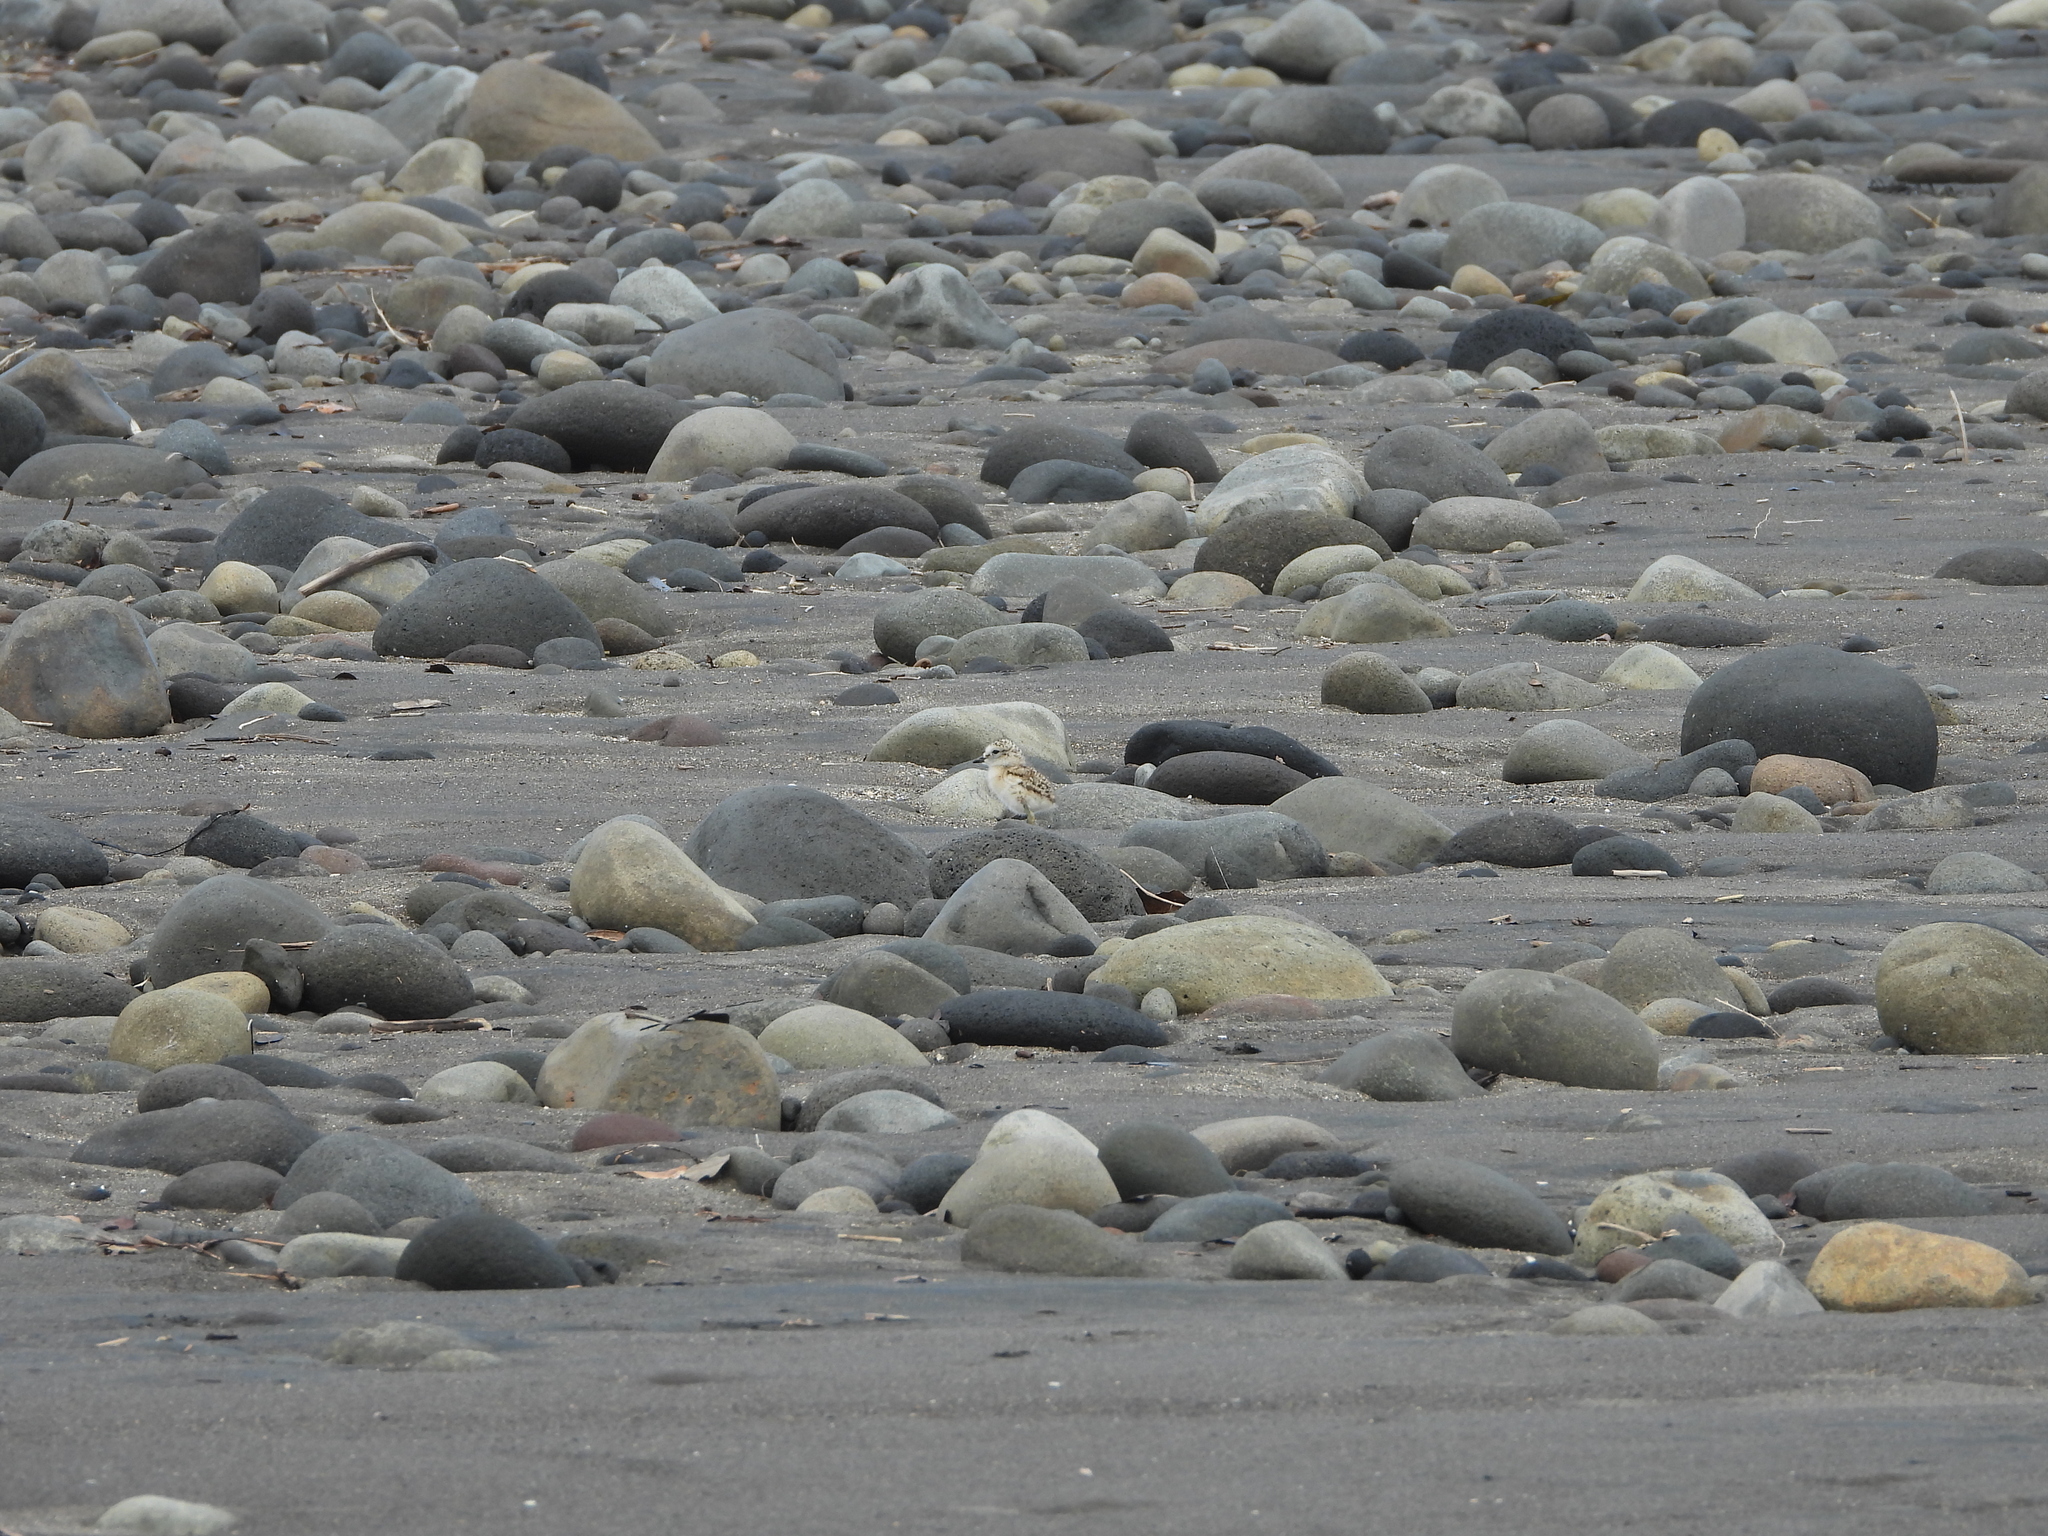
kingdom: Animalia
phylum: Chordata
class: Aves
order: Charadriiformes
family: Charadriidae
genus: Anarhynchus
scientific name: Anarhynchus
